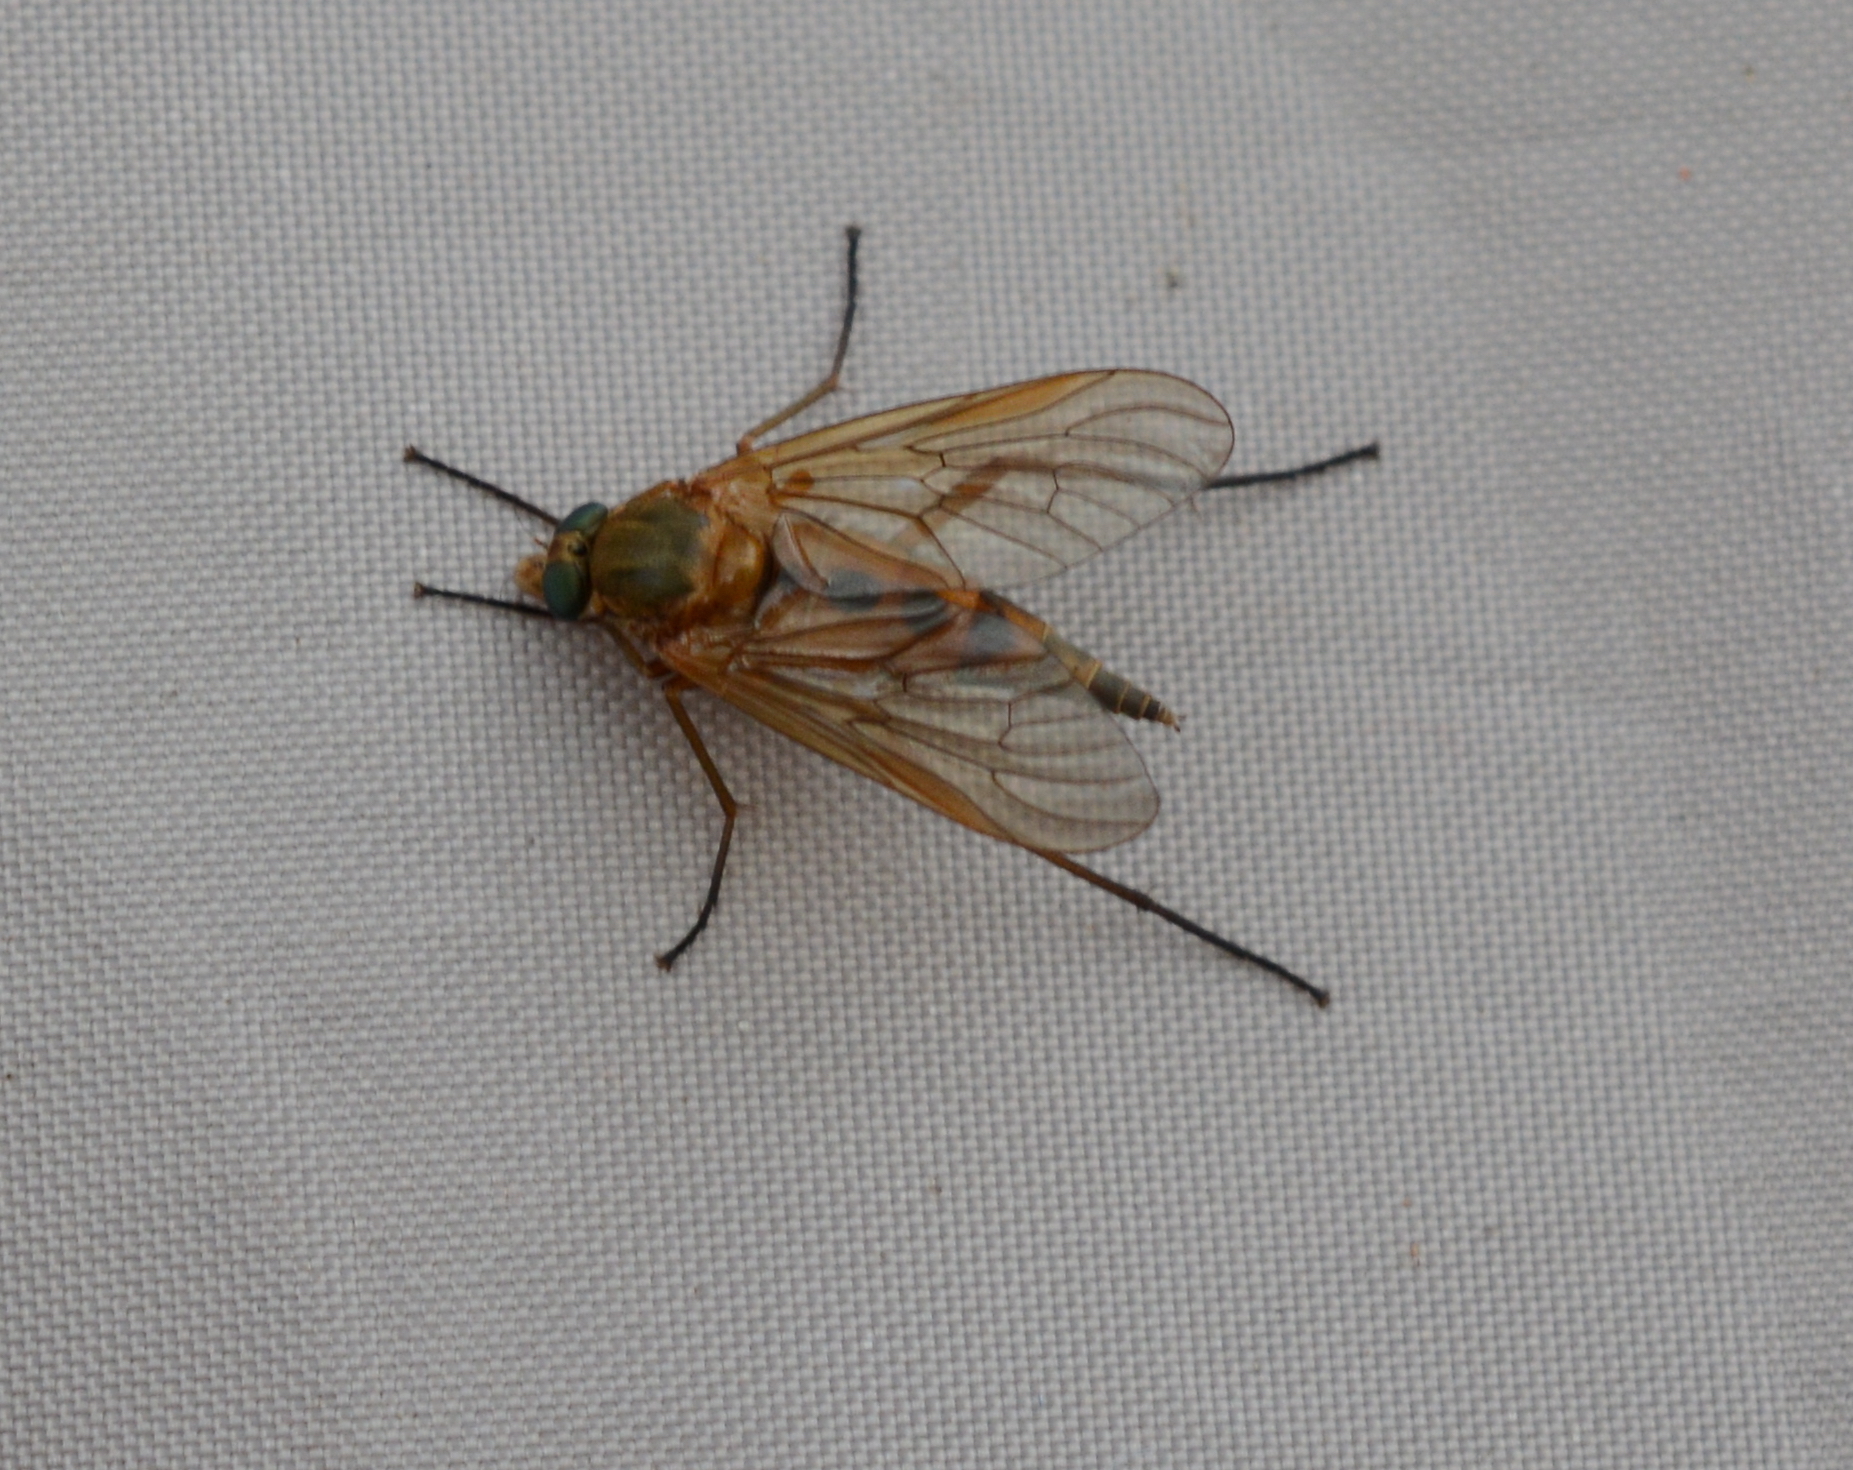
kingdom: Animalia
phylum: Arthropoda
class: Insecta
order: Diptera
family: Rhagionidae
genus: Rhagio
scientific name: Rhagio tringaria
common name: Marsh snipefly
